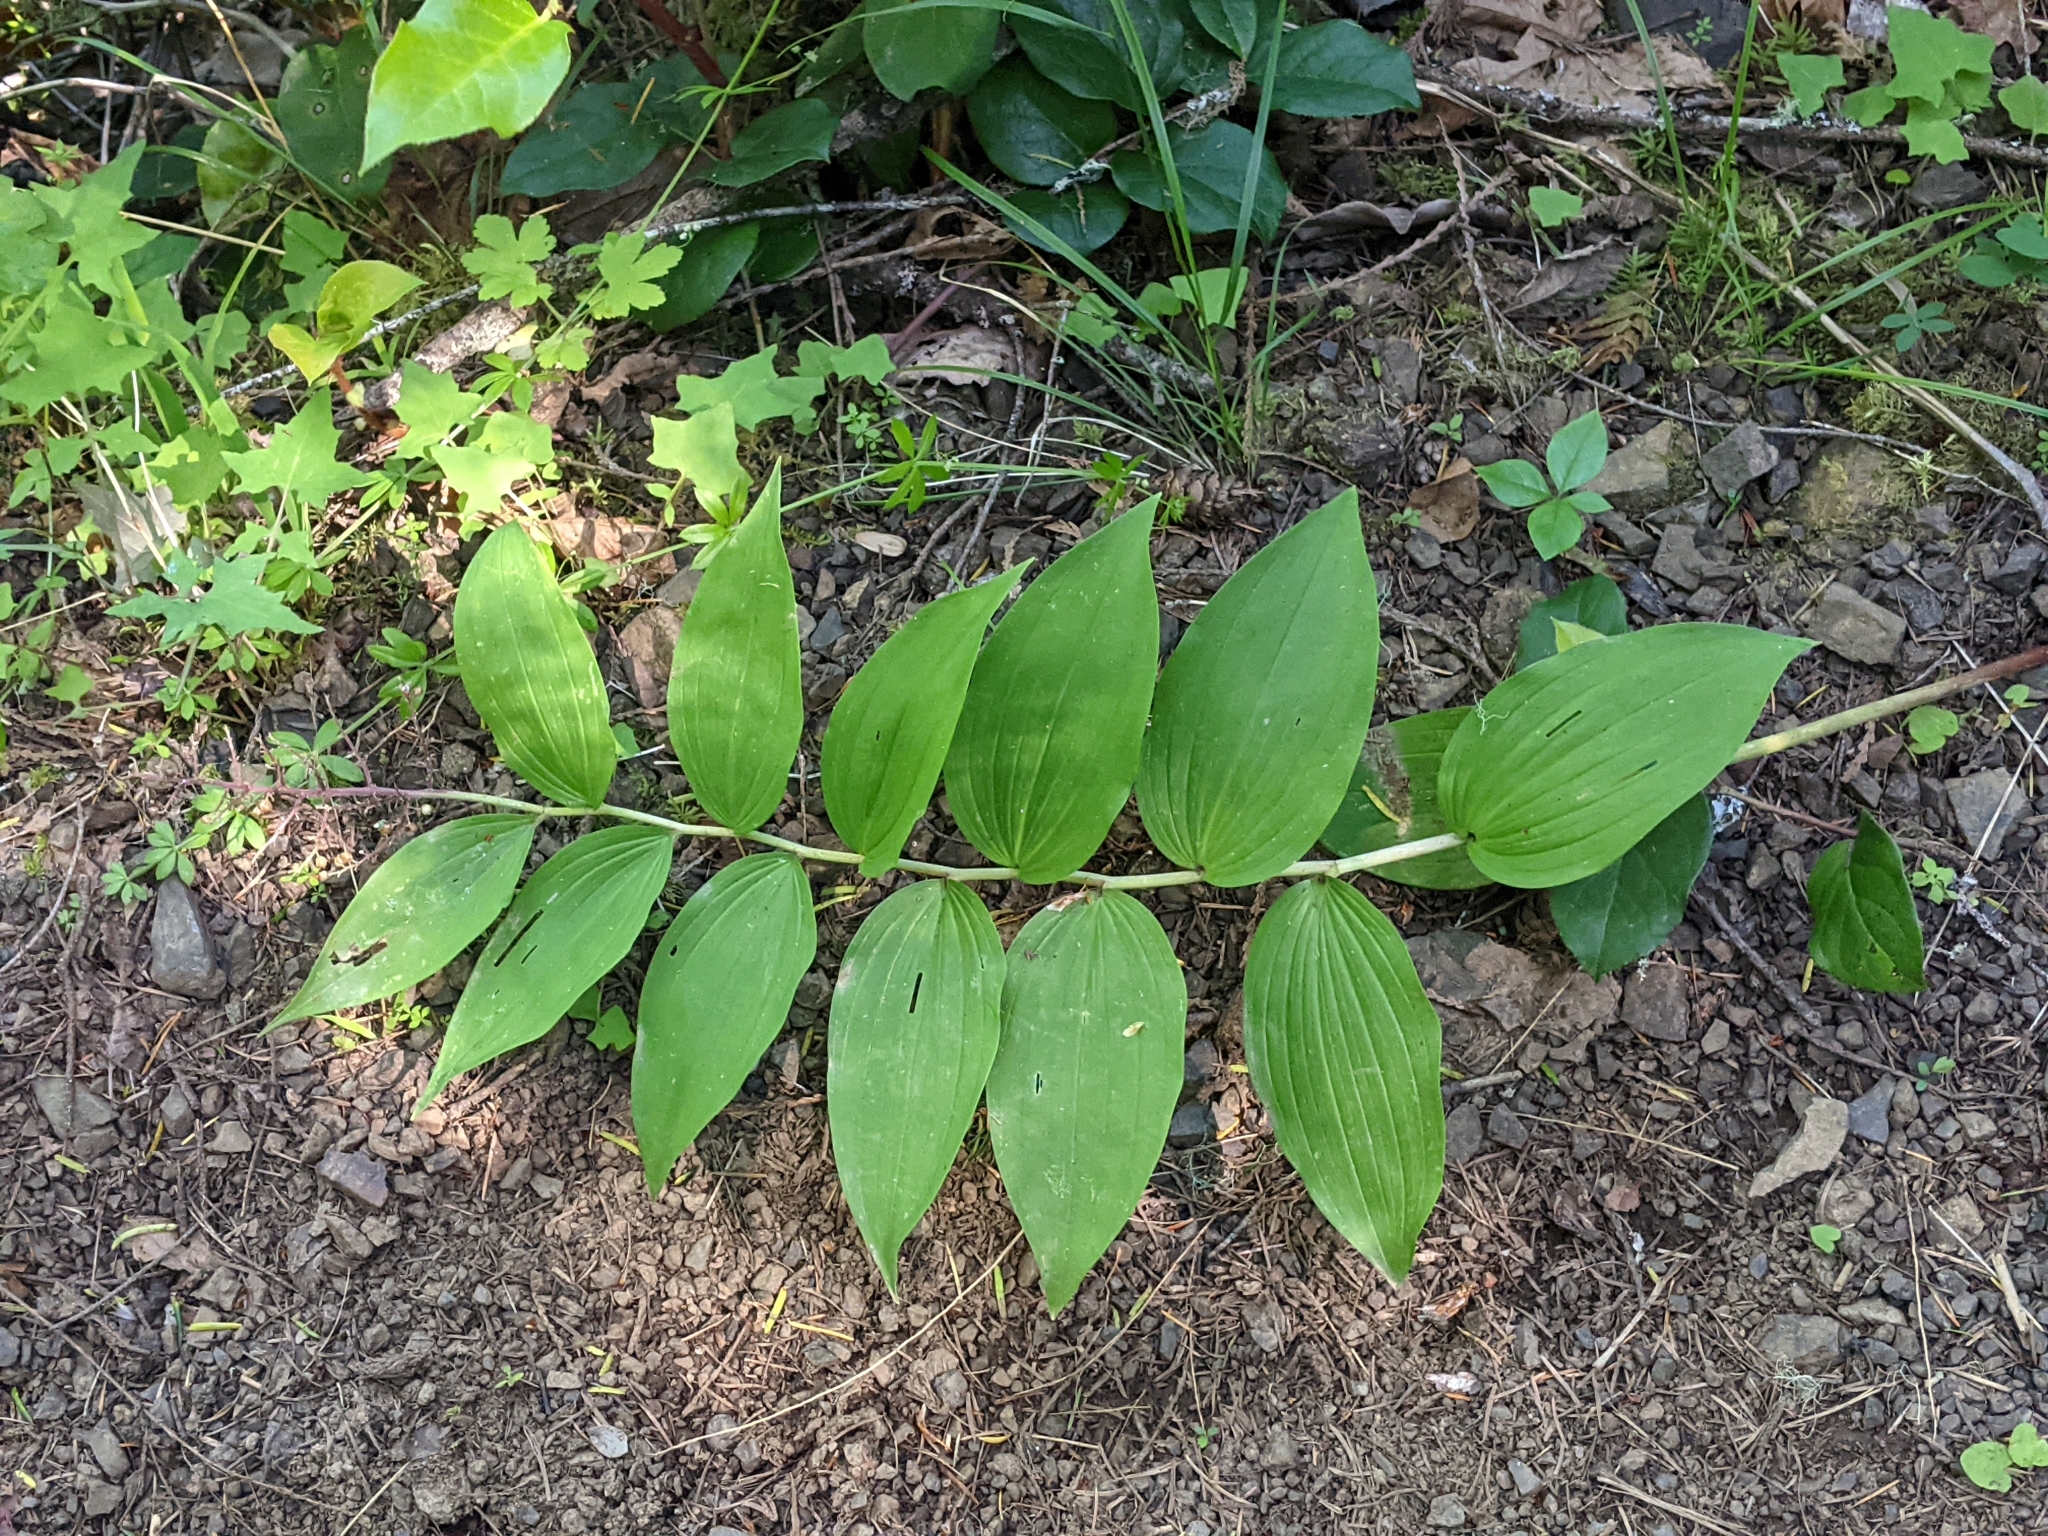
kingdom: Plantae
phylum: Tracheophyta
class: Liliopsida
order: Asparagales
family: Asparagaceae
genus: Maianthemum
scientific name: Maianthemum racemosum
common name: False spikenard
